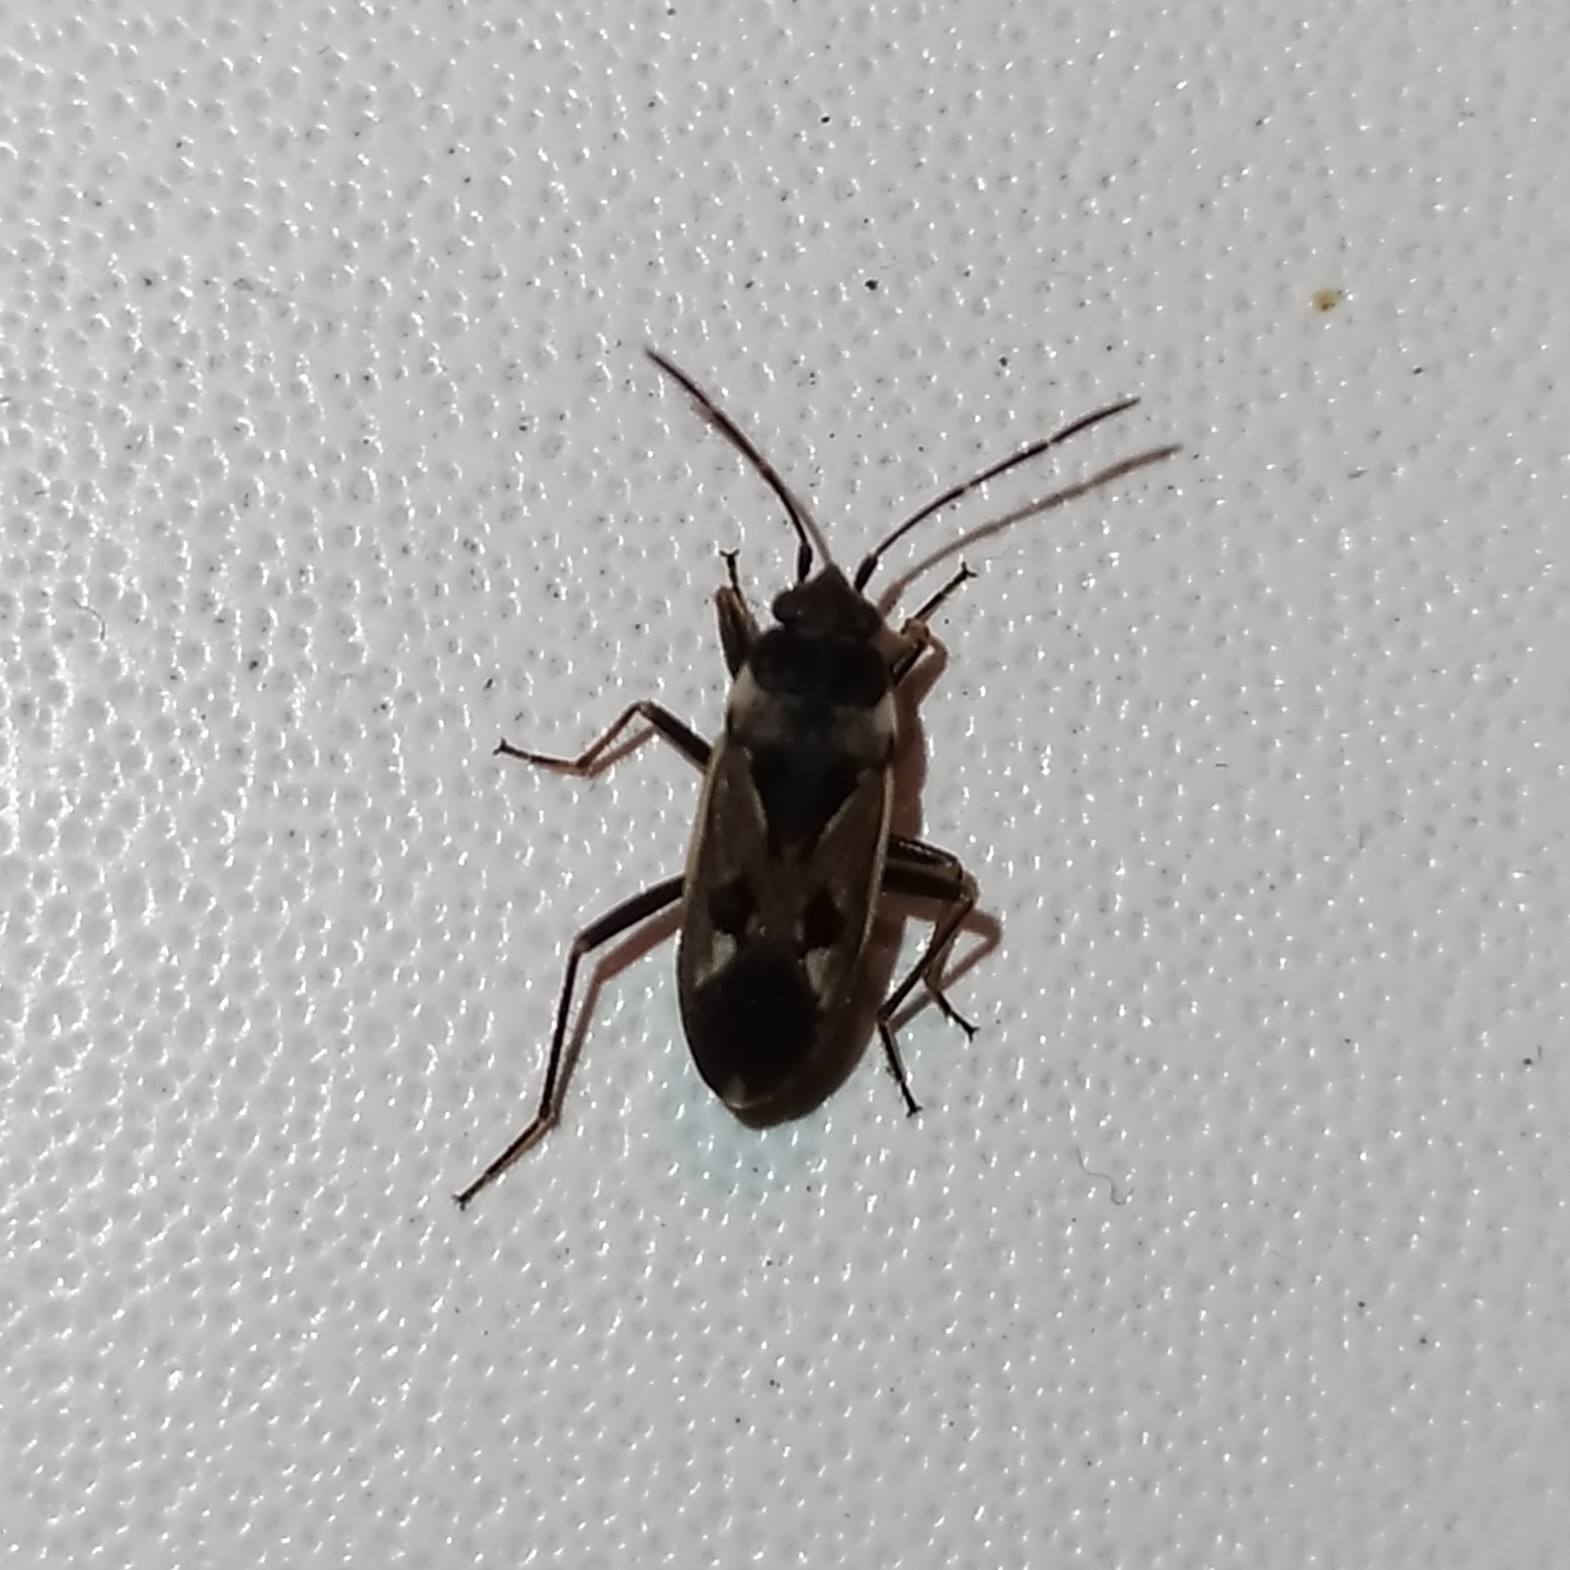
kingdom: Animalia
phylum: Arthropoda
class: Insecta
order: Hemiptera
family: Rhyparochromidae
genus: Rhyparochromus
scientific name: Rhyparochromus vulgaris
